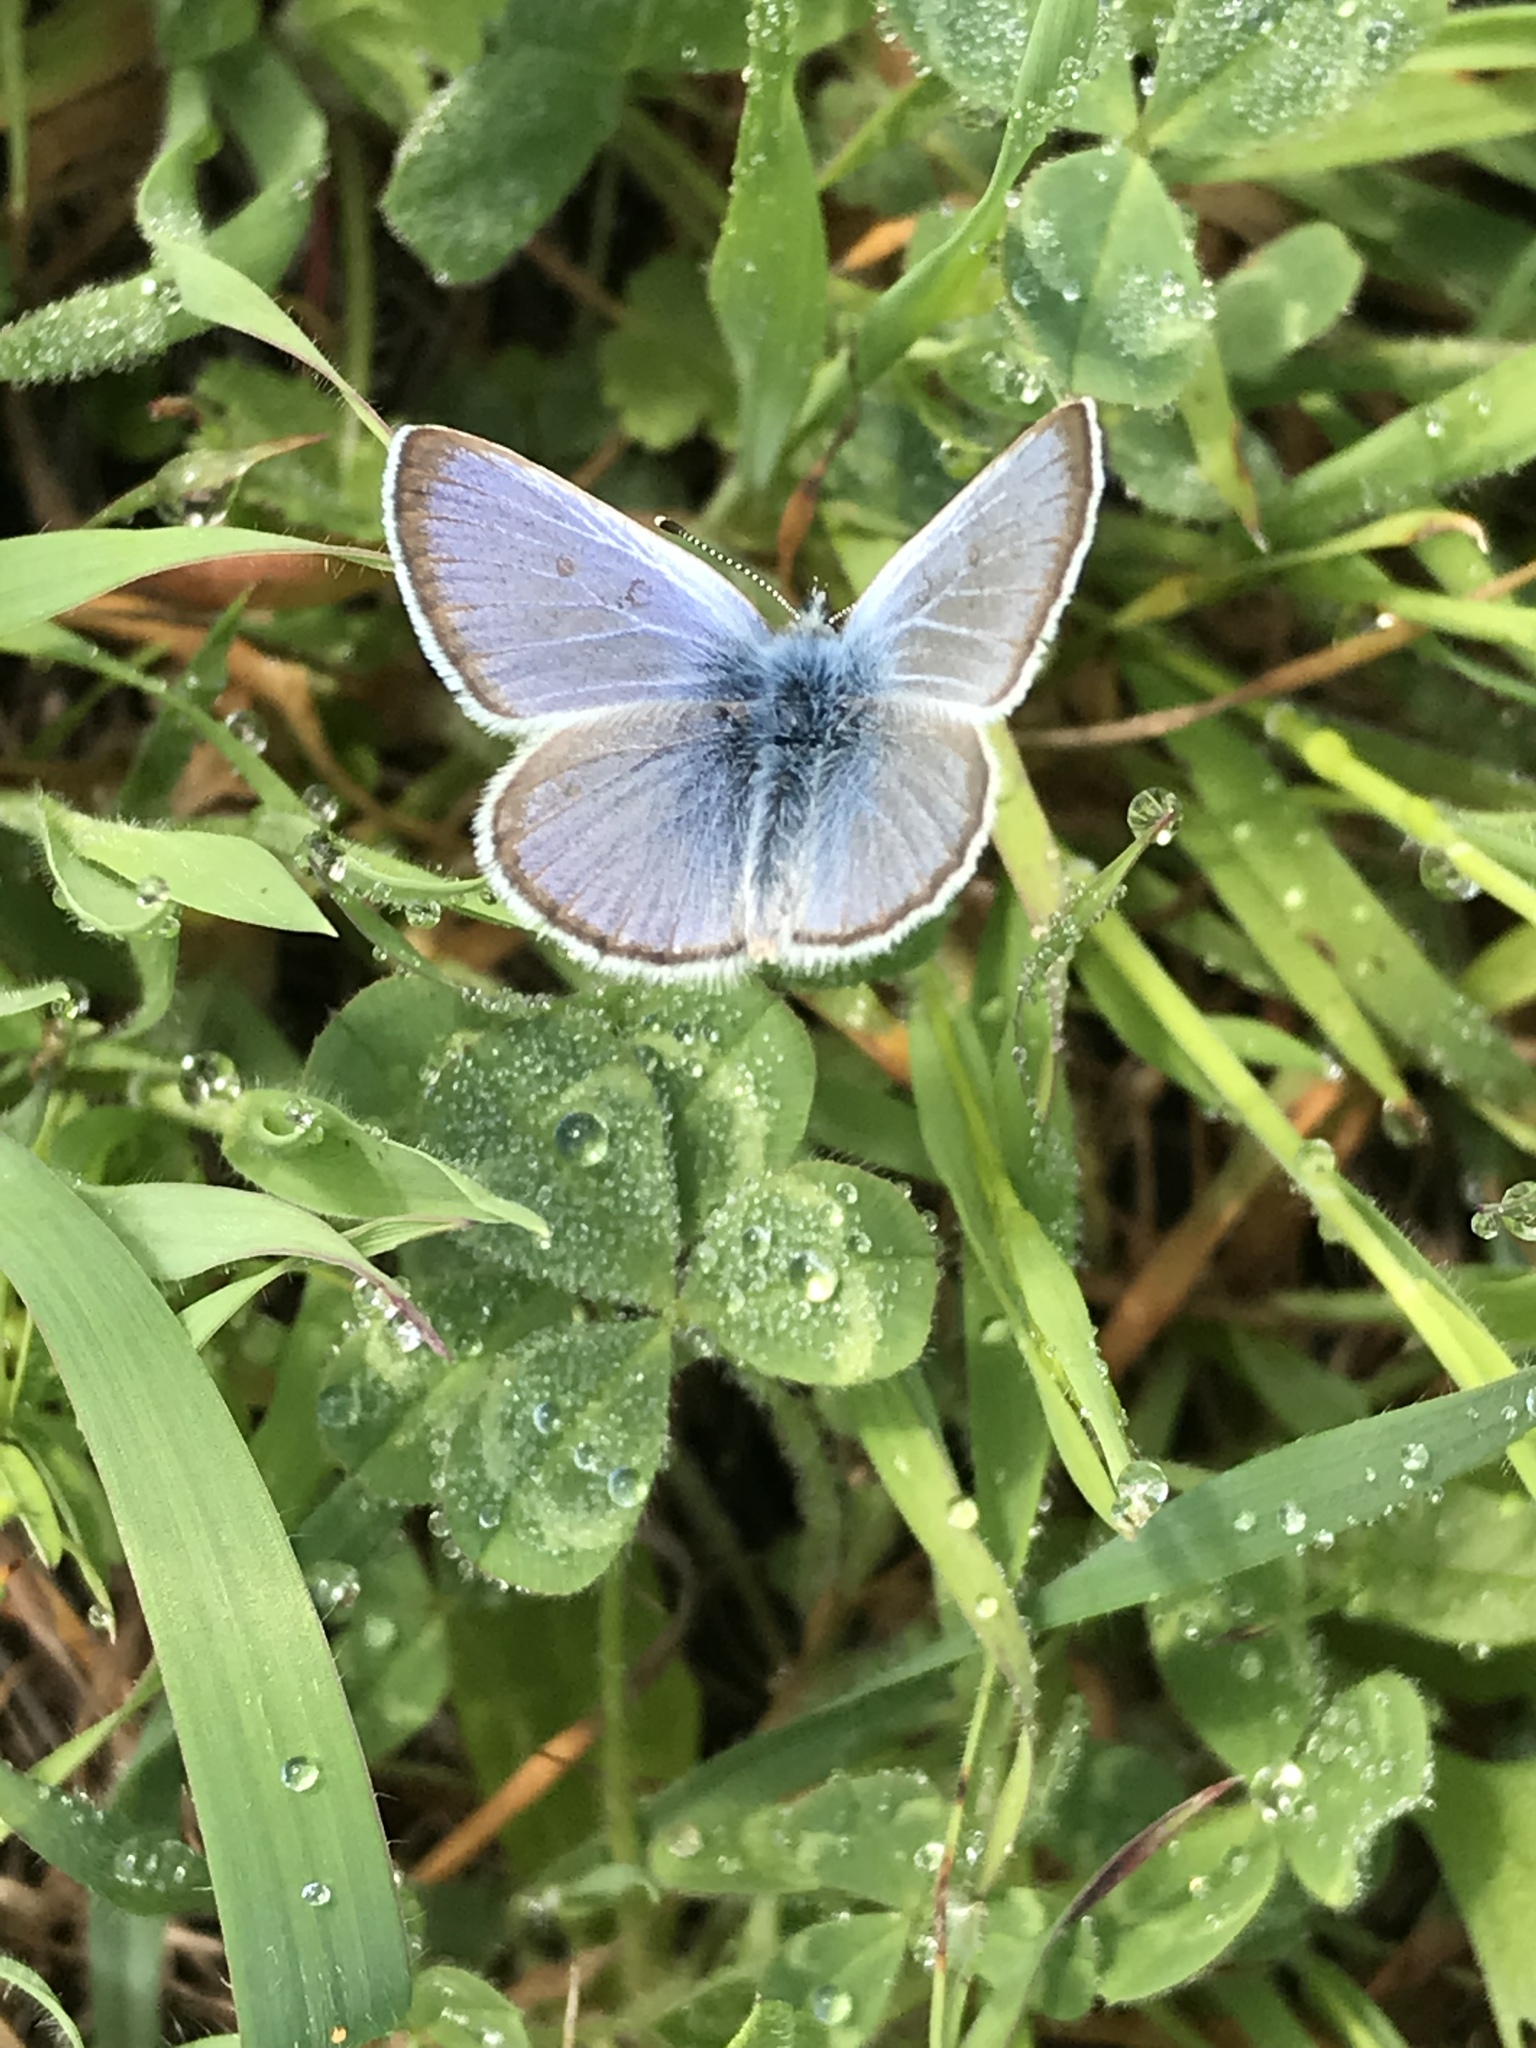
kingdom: Animalia
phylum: Arthropoda
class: Insecta
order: Lepidoptera
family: Lycaenidae
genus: Glaucopsyche
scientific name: Glaucopsyche lygdamus
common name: Silvery blue
